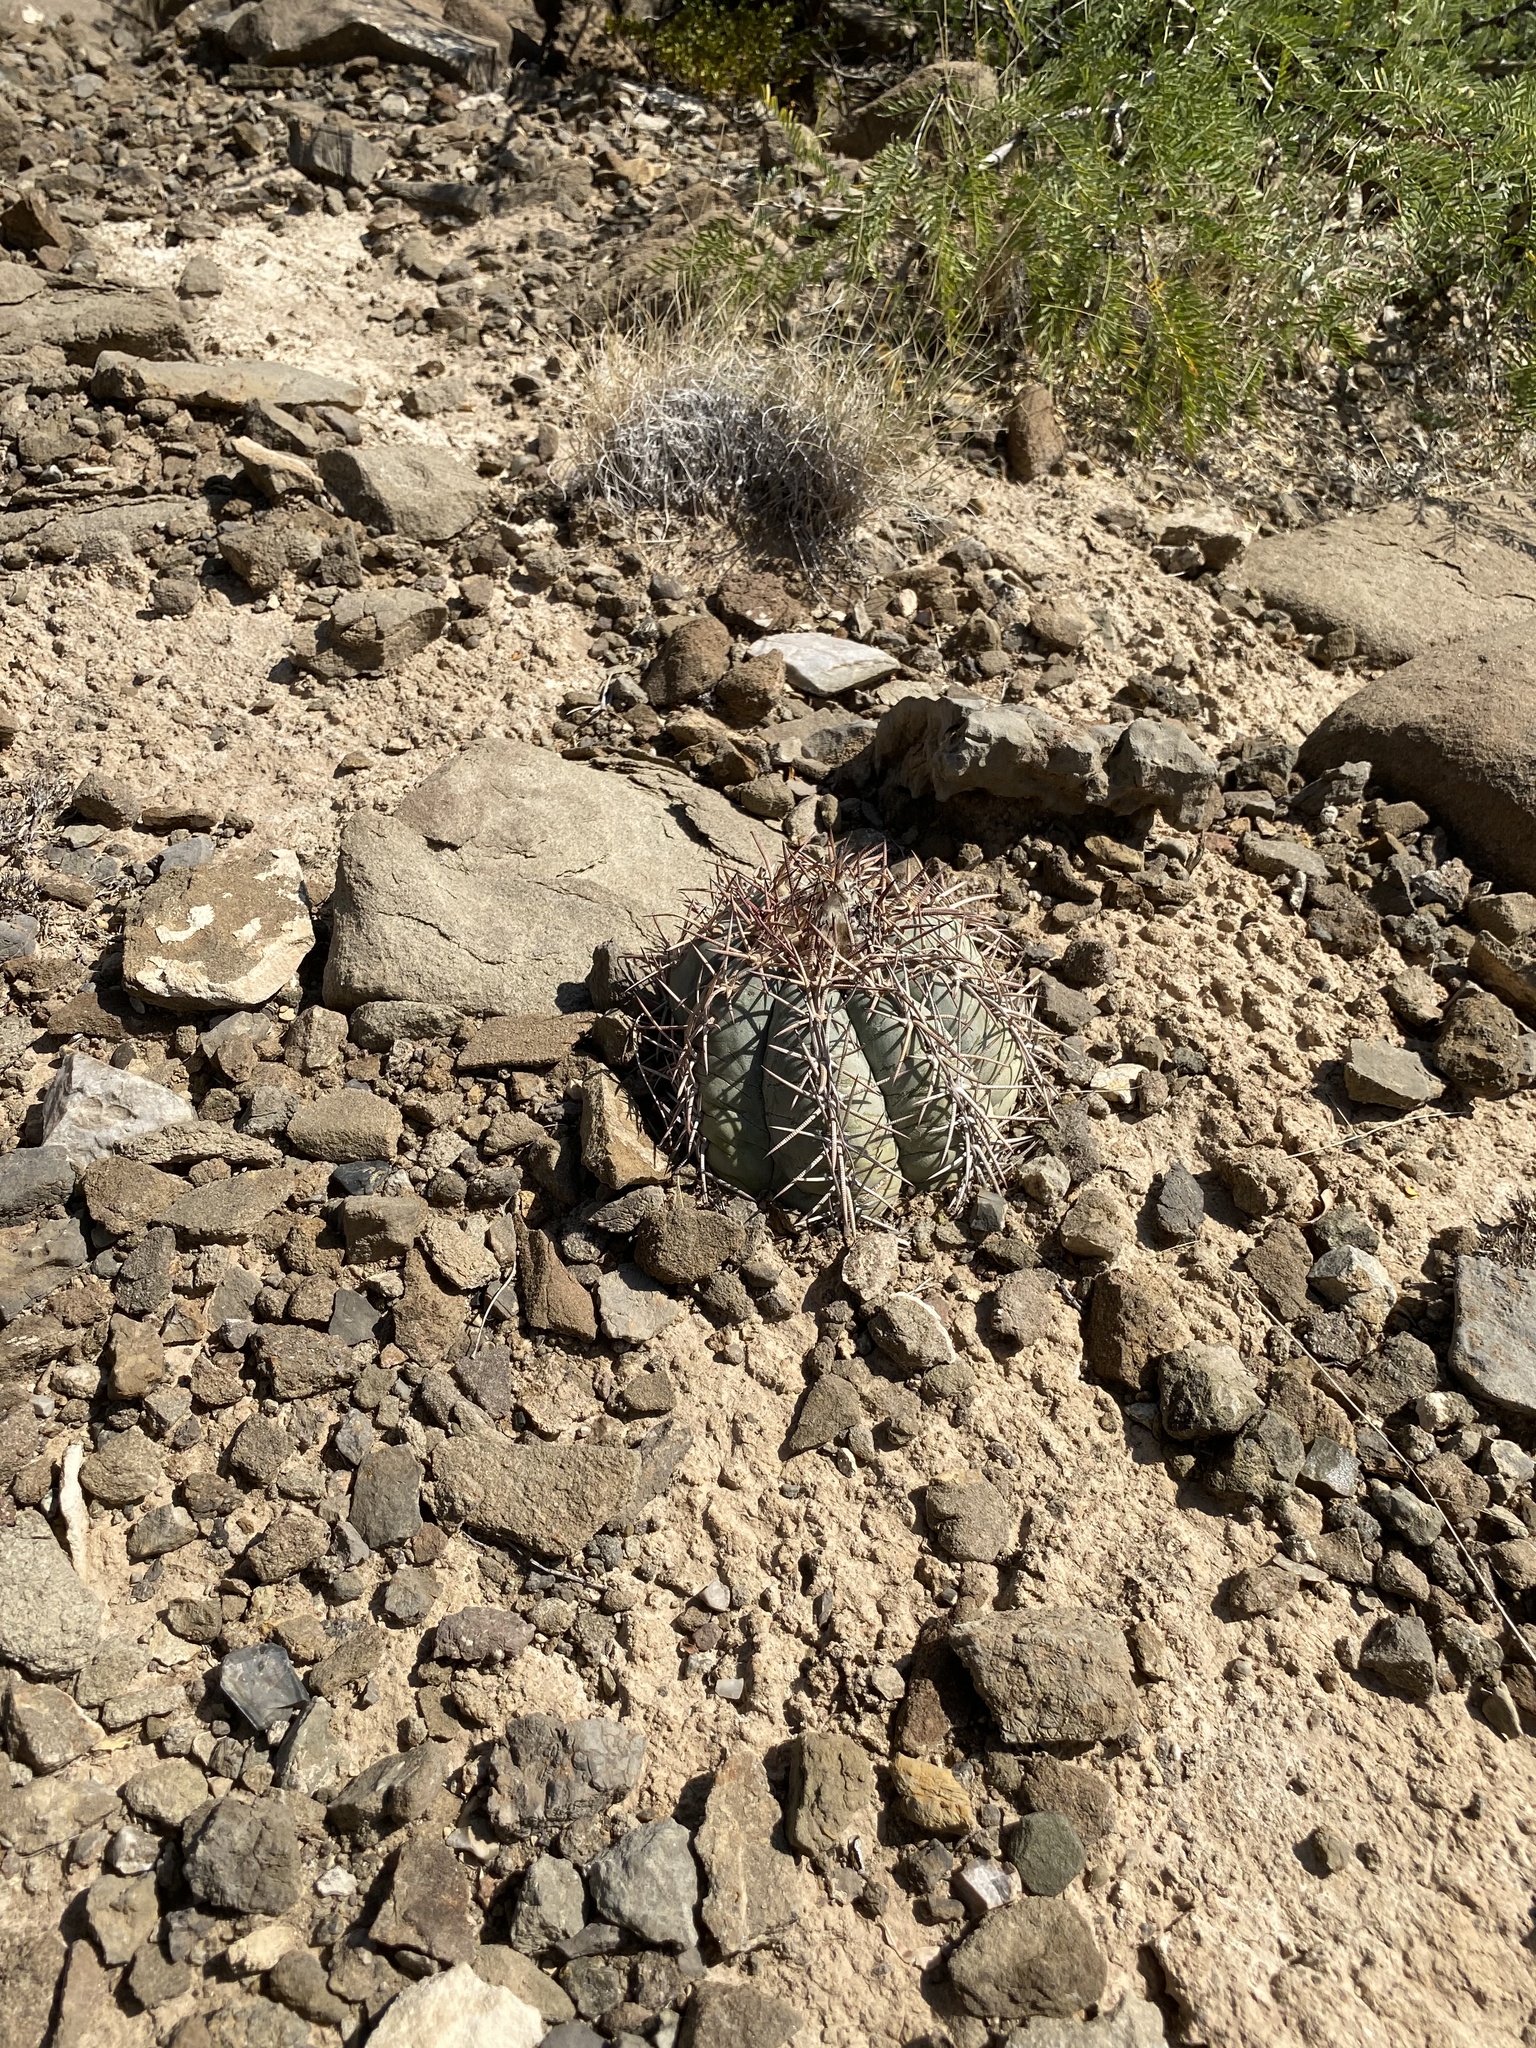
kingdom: Plantae
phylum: Tracheophyta
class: Magnoliopsida
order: Caryophyllales
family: Cactaceae
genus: Echinocactus
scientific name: Echinocactus horizonthalonius
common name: Devilshead
